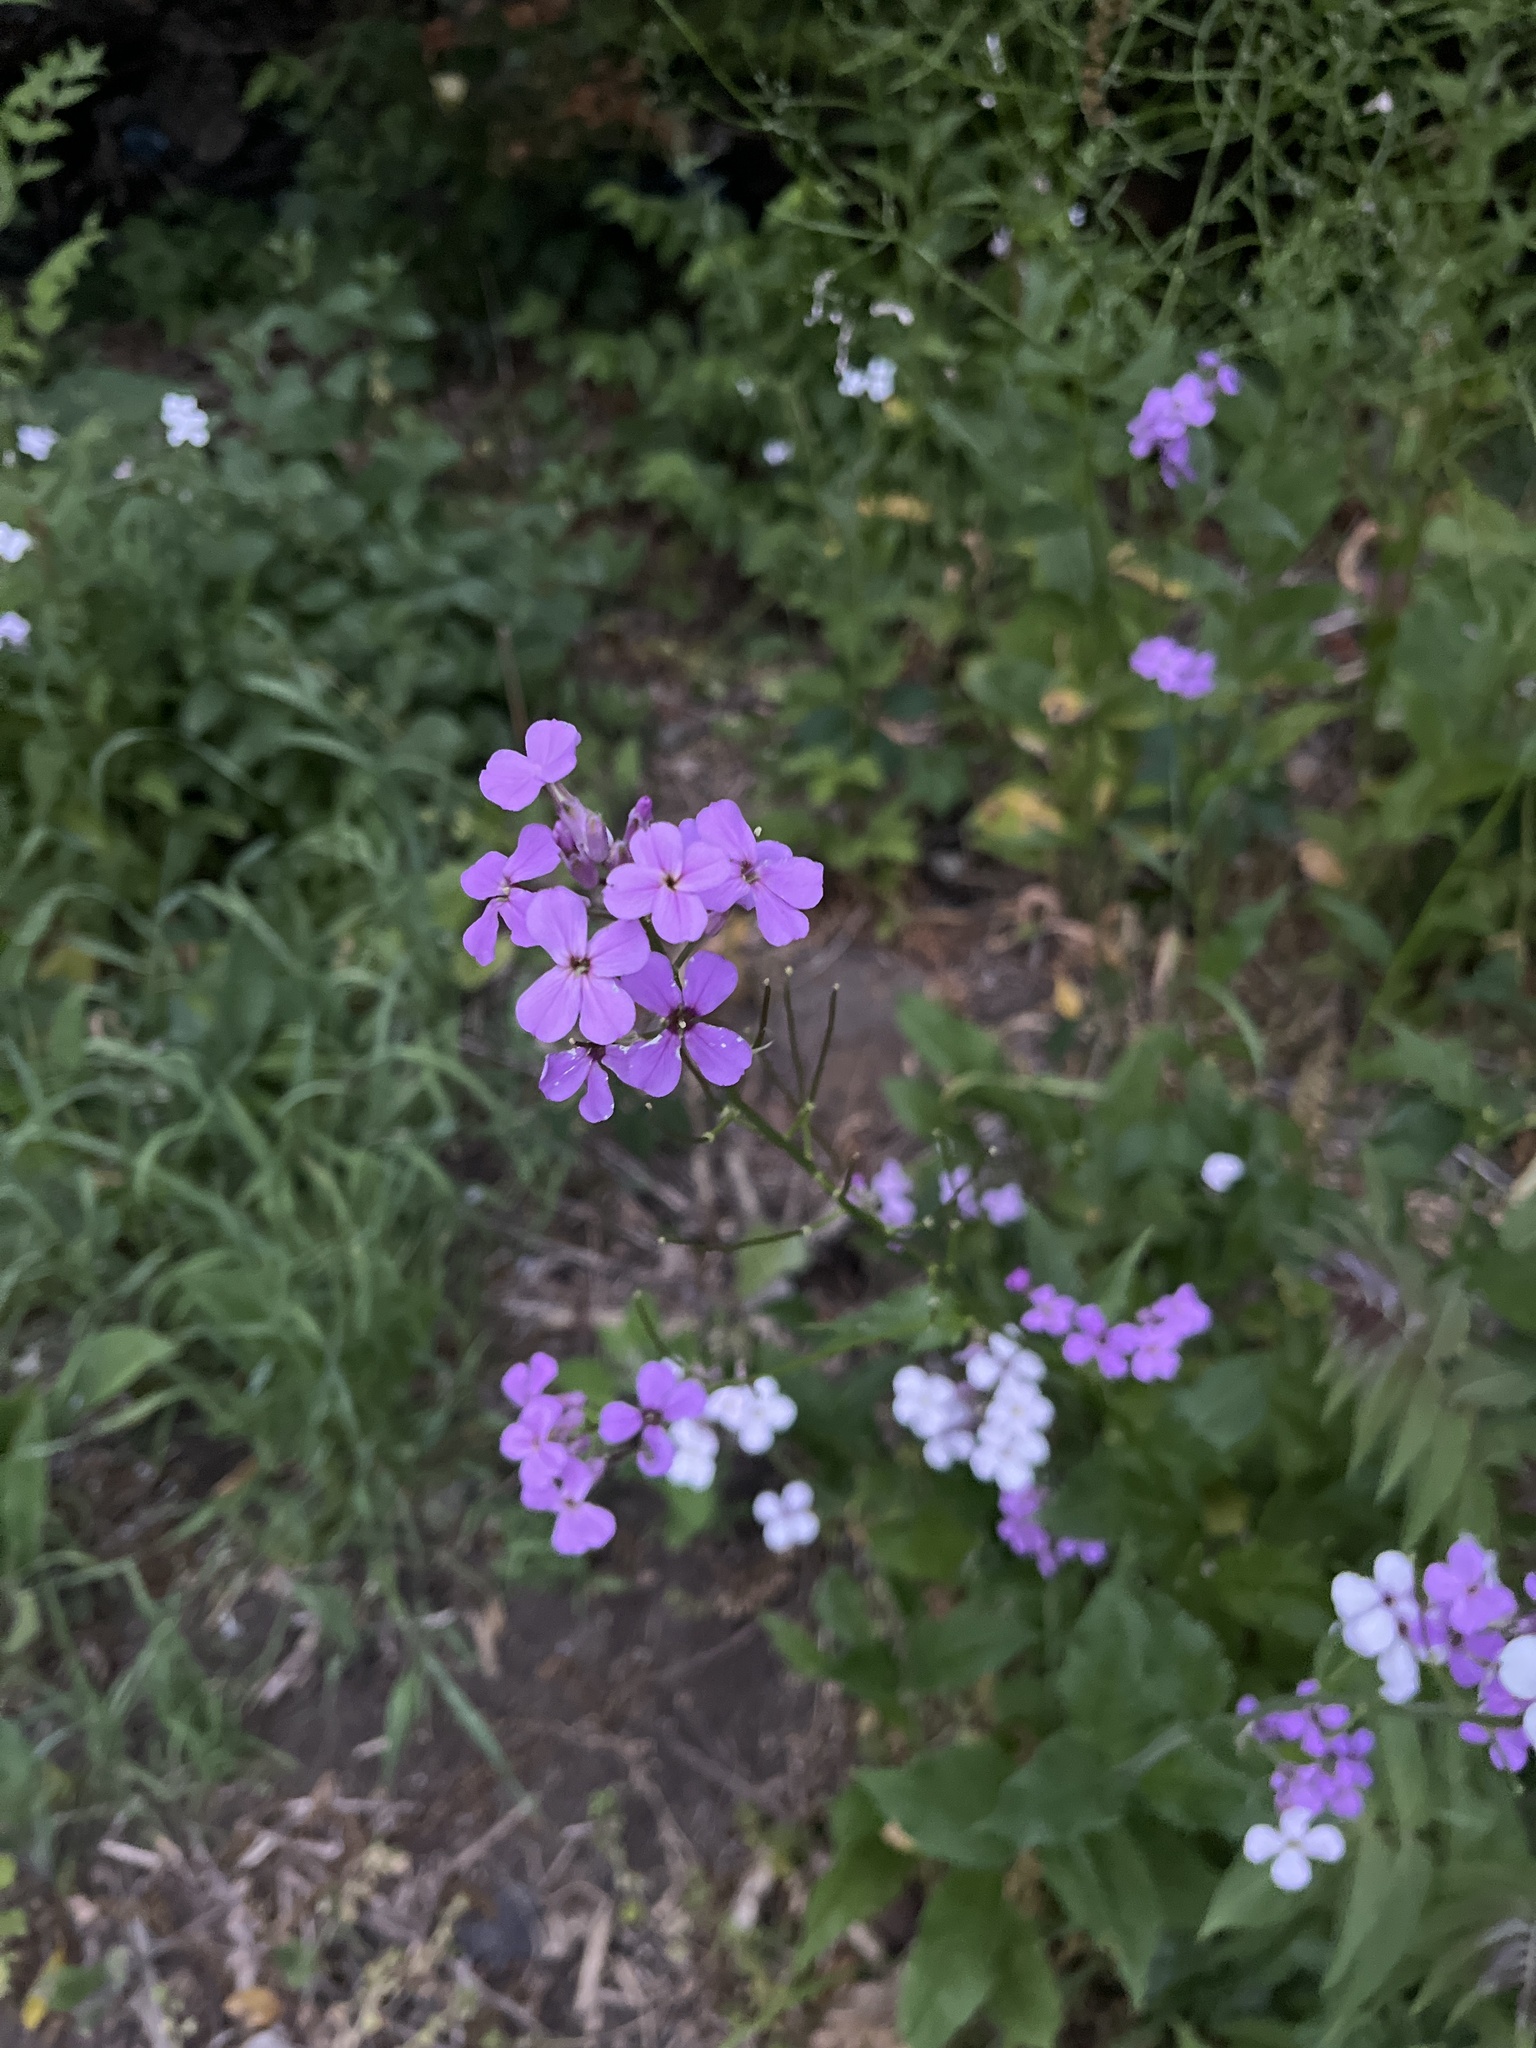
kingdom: Plantae
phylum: Tracheophyta
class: Magnoliopsida
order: Brassicales
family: Brassicaceae
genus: Hesperis
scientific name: Hesperis matronalis
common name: Dame's-violet
